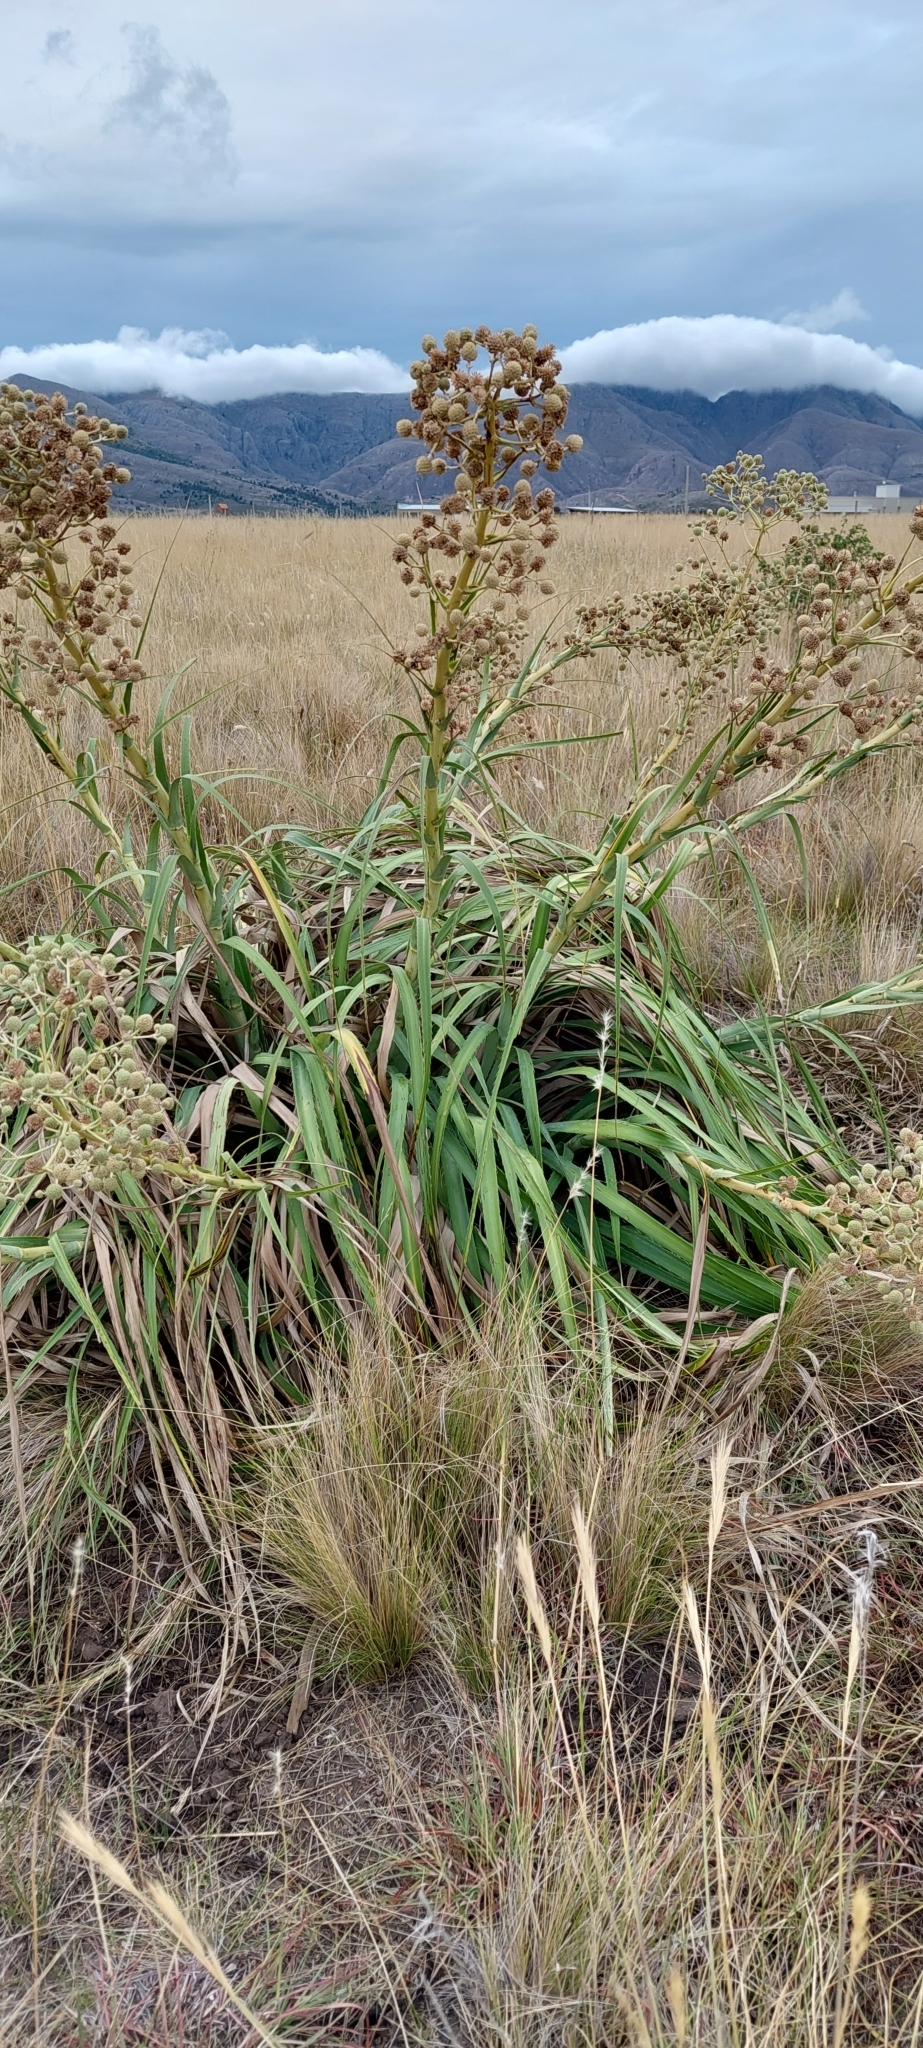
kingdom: Plantae
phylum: Tracheophyta
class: Magnoliopsida
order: Apiales
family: Apiaceae
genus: Eryngium
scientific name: Eryngium humboldtii
